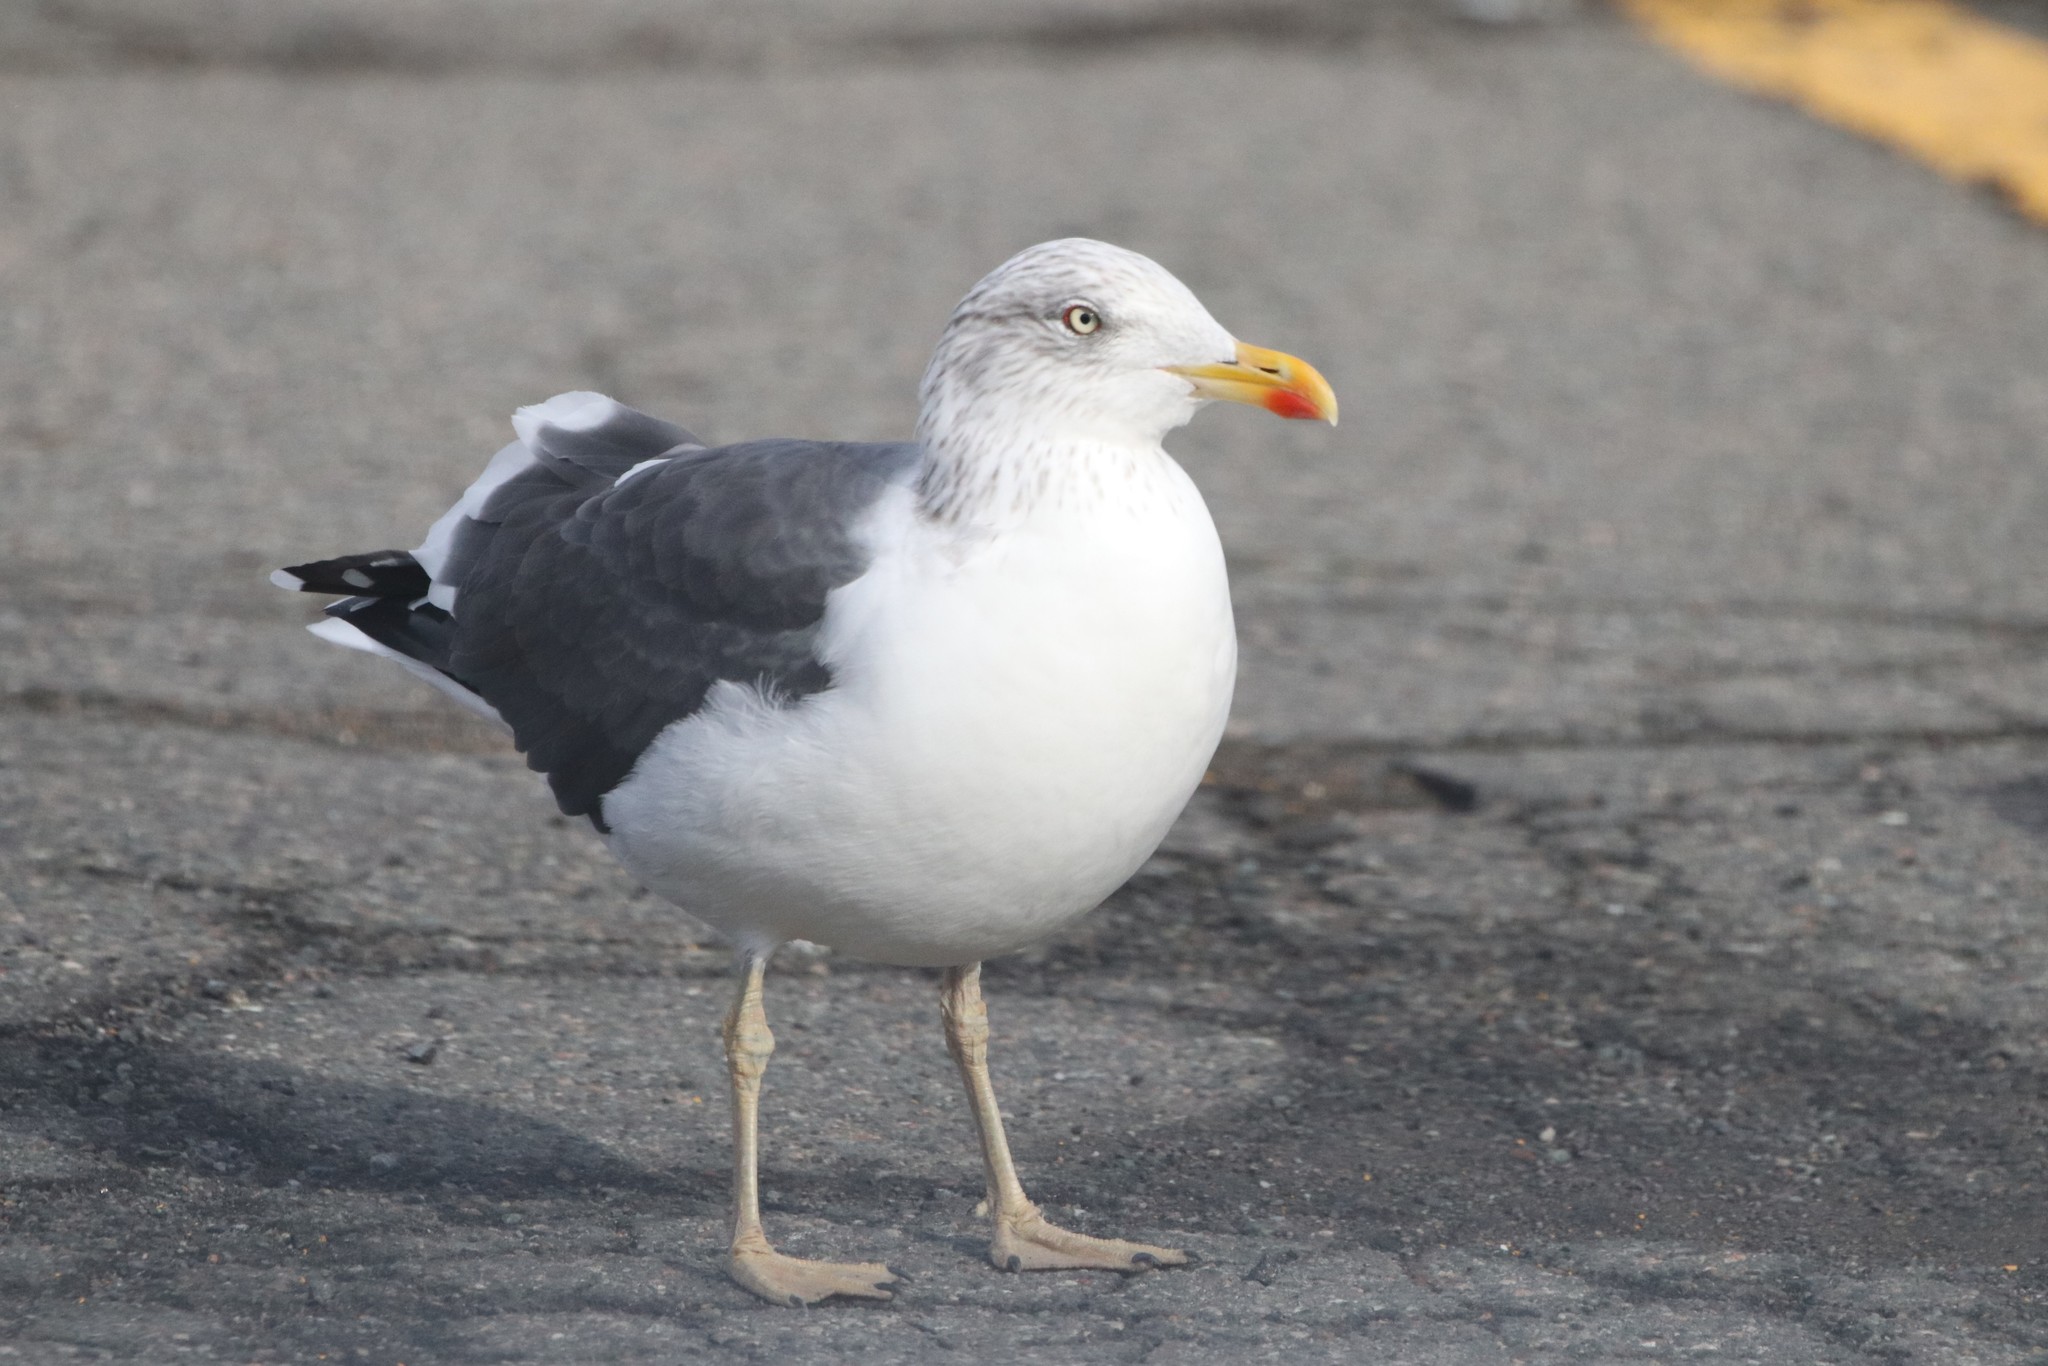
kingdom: Animalia
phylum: Chordata
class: Aves
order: Charadriiformes
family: Laridae
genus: Larus
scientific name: Larus fuscus
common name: Lesser black-backed gull
